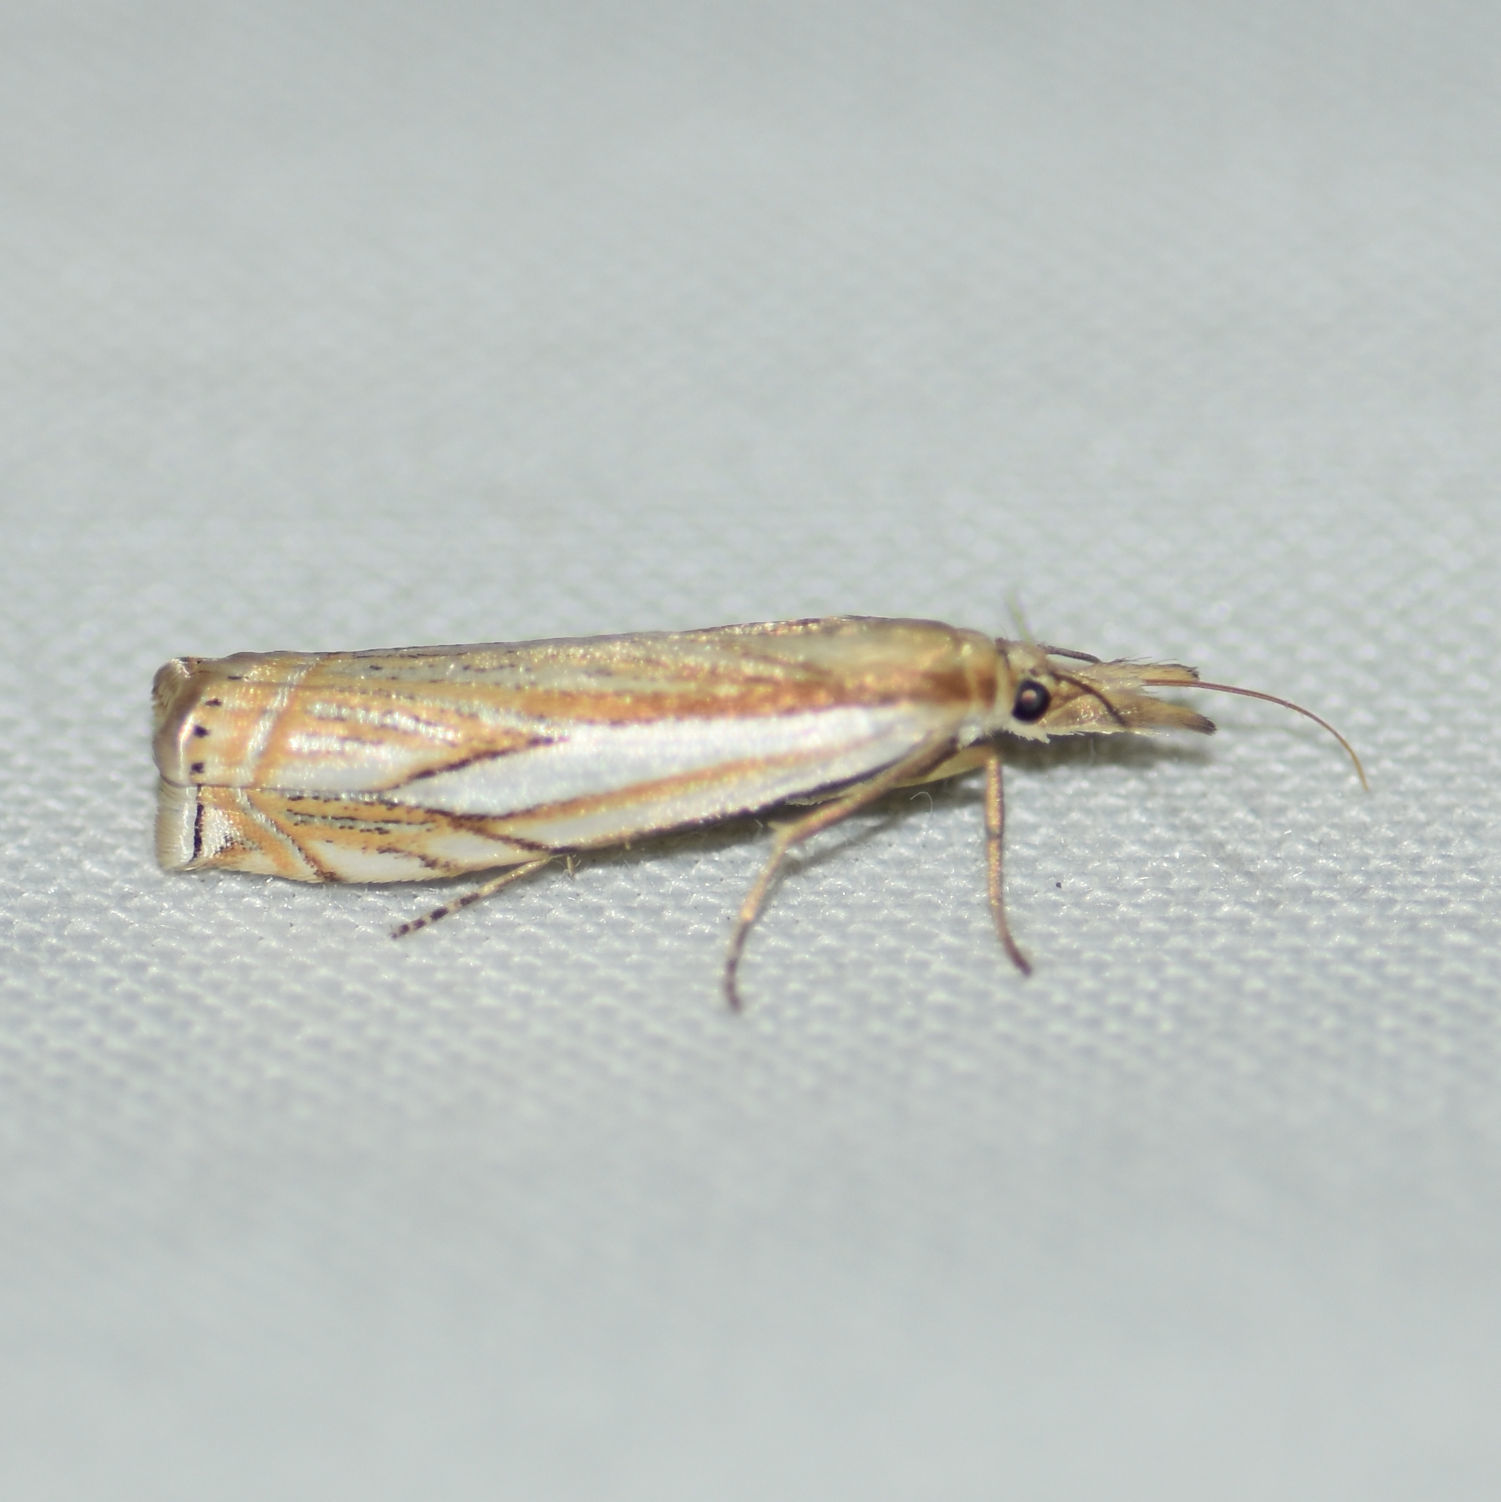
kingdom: Animalia
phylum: Arthropoda
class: Insecta
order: Lepidoptera
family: Crambidae
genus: Crambus
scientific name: Crambus saltuellus
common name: Pasture grass-veneer
